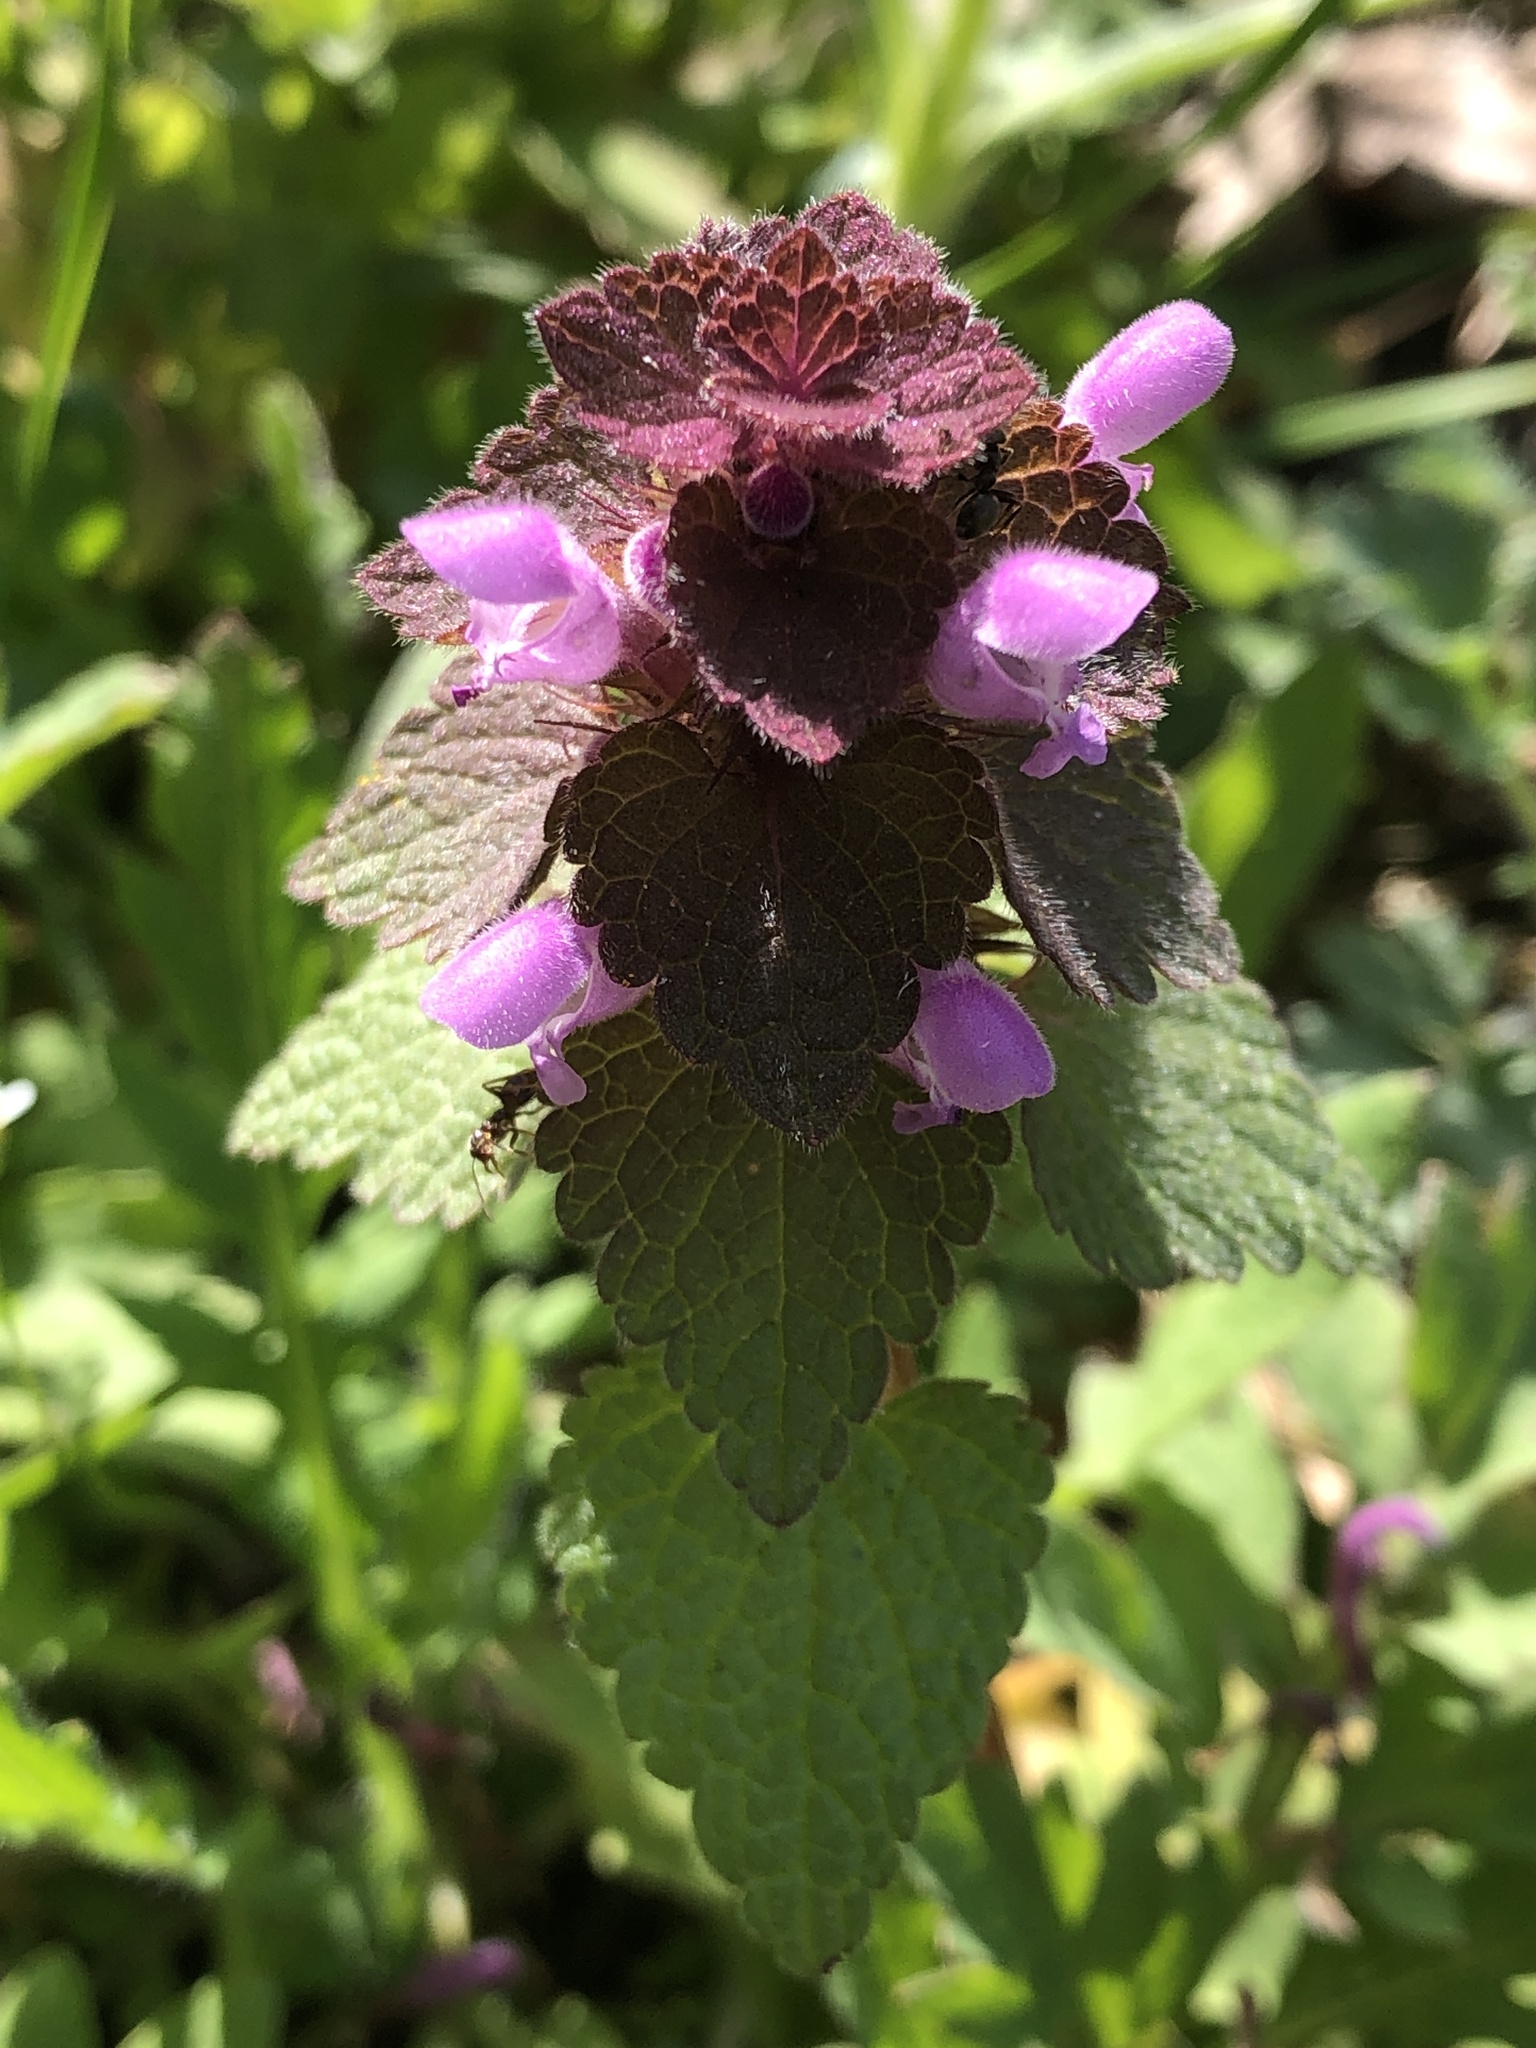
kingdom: Plantae
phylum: Tracheophyta
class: Magnoliopsida
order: Lamiales
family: Lamiaceae
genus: Lamium
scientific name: Lamium purpureum
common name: Red dead-nettle
